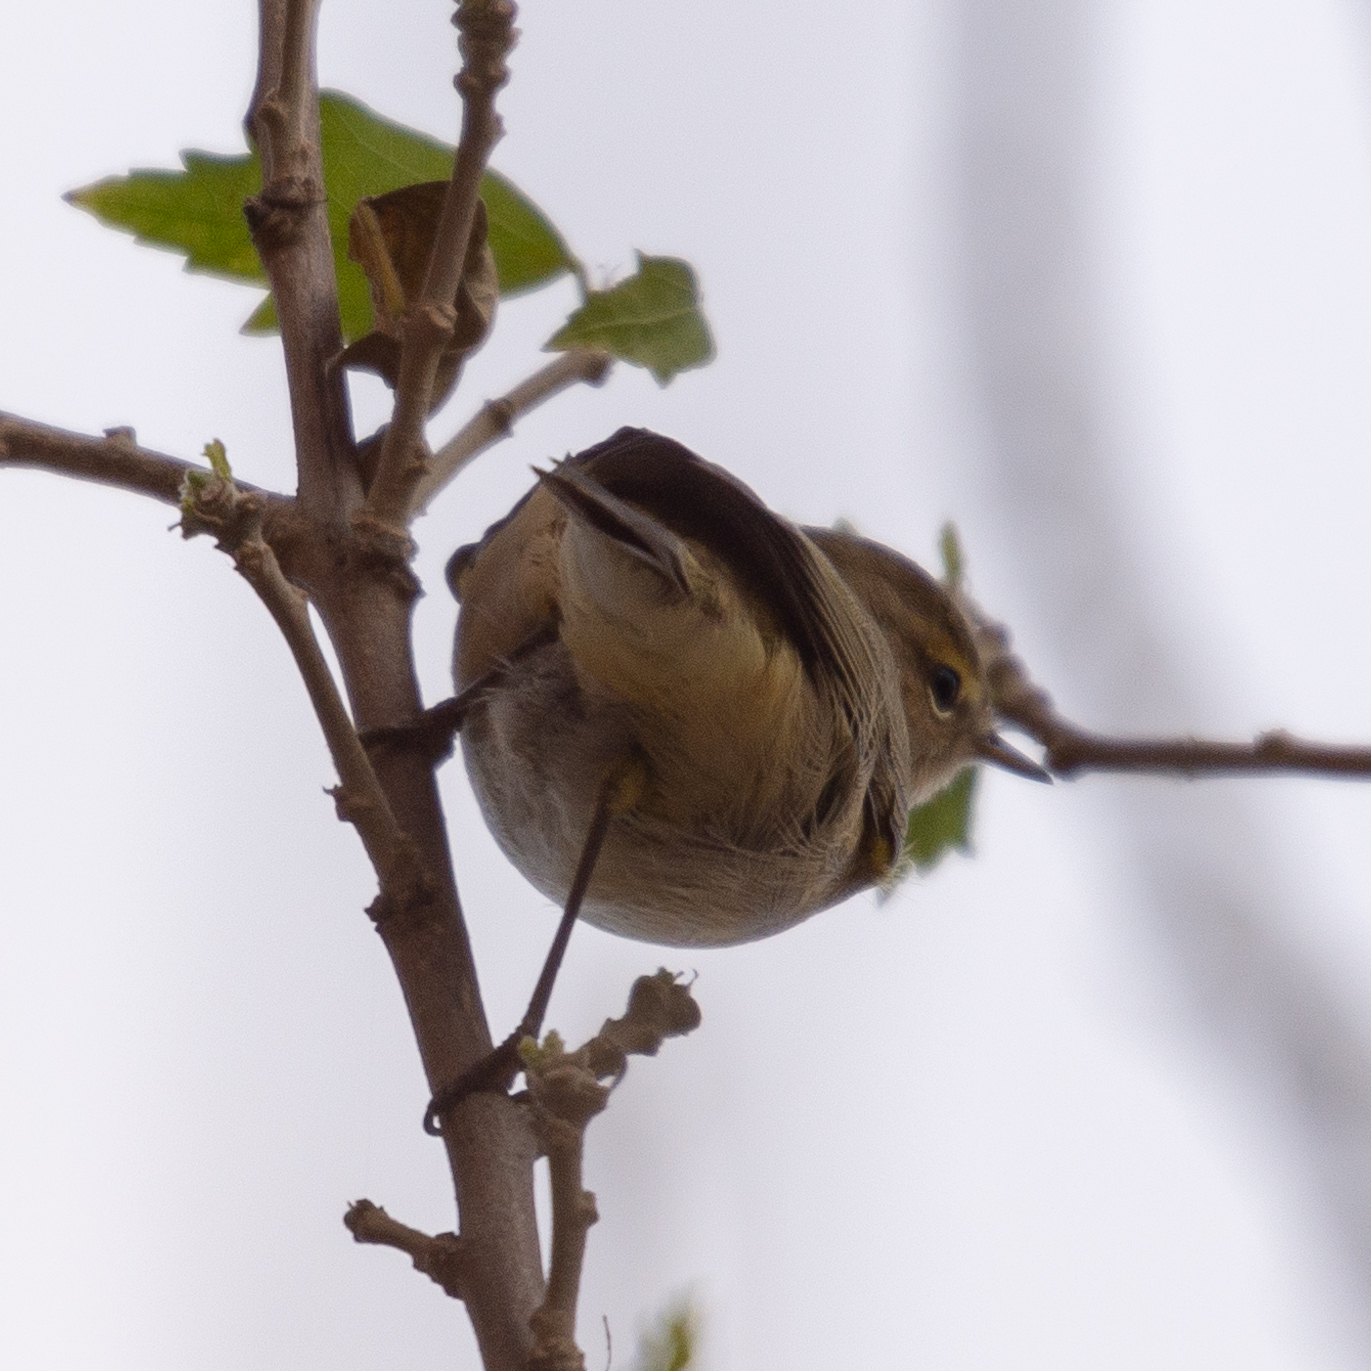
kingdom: Animalia
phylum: Chordata
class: Aves
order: Passeriformes
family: Phylloscopidae
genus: Phylloscopus
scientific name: Phylloscopus collybita
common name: Common chiffchaff
